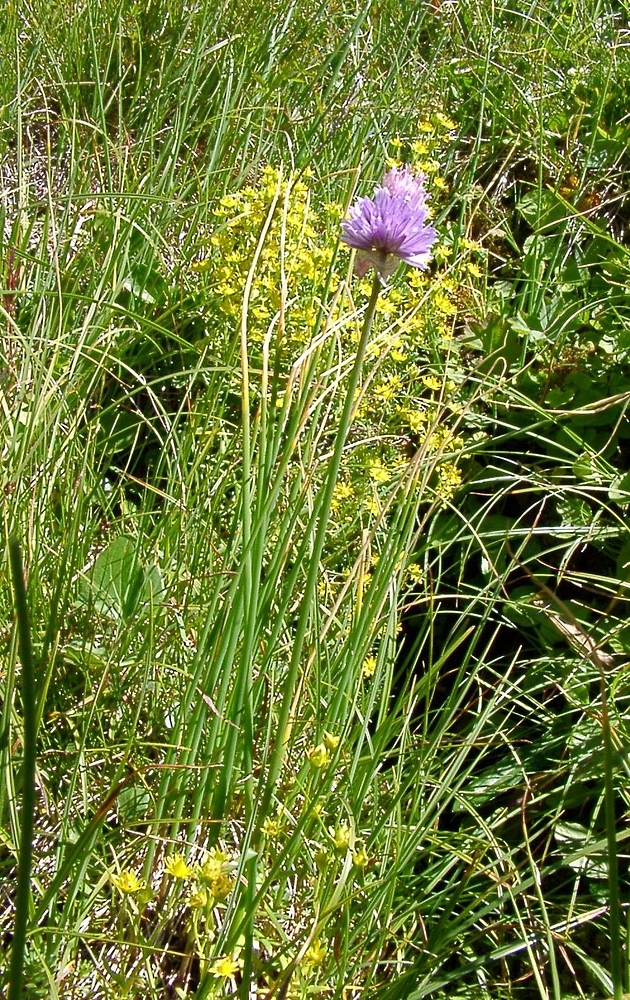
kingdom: Plantae
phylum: Tracheophyta
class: Liliopsida
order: Asparagales
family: Amaryllidaceae
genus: Allium
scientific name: Allium schoenoprasum
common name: Chives
